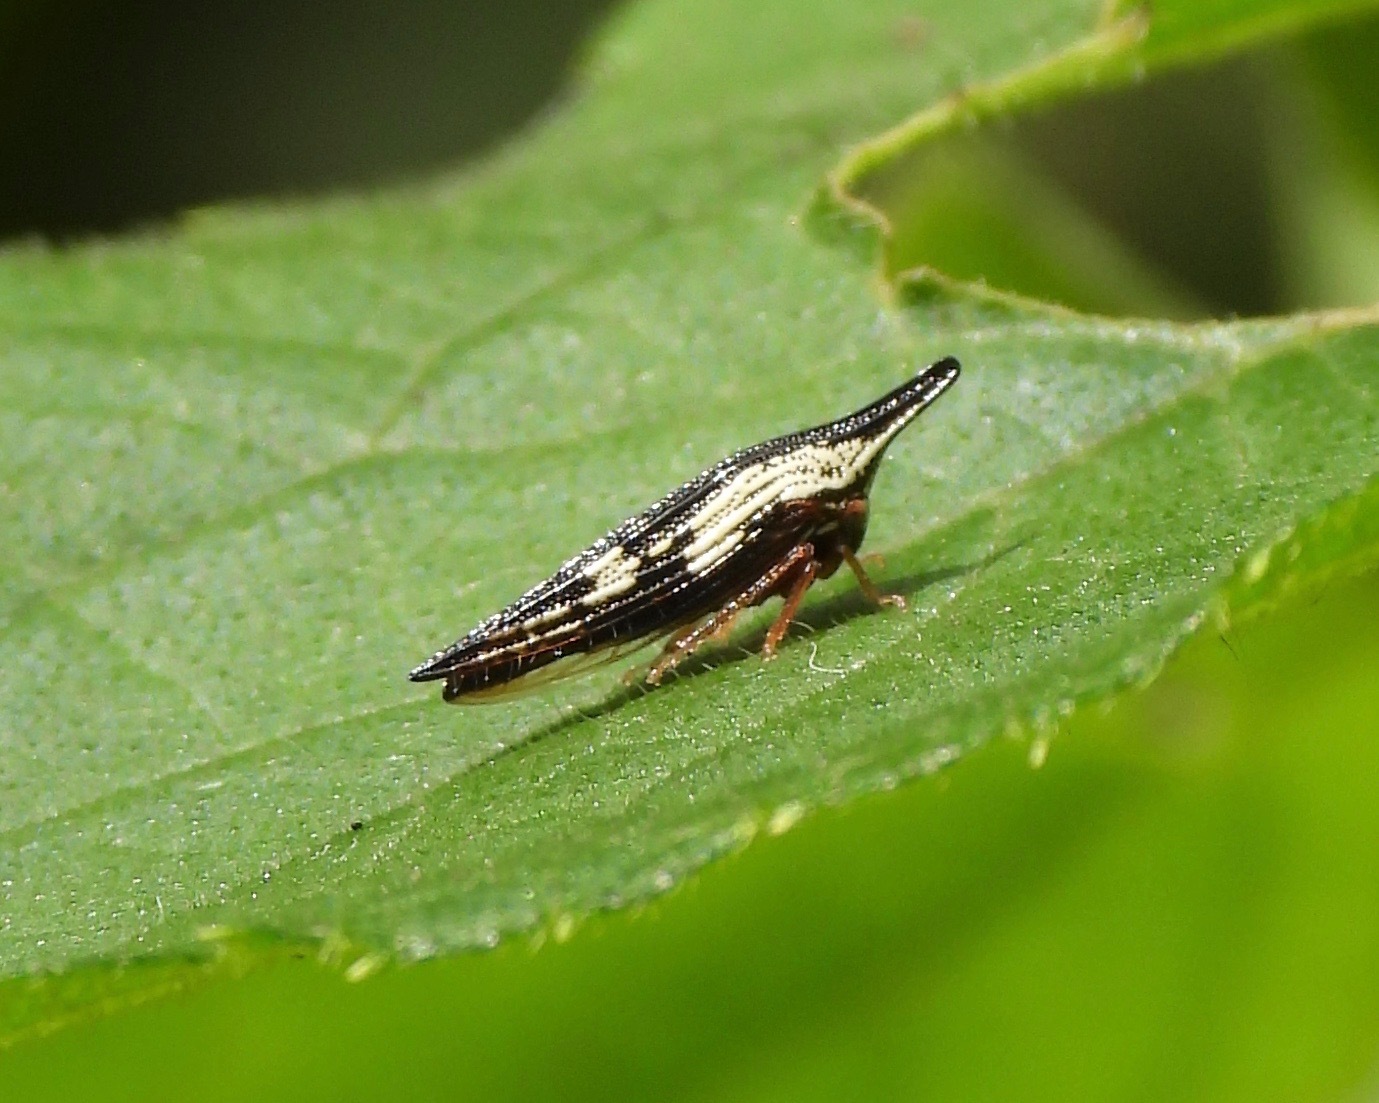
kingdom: Animalia
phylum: Arthropoda
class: Insecta
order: Hemiptera
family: Membracidae
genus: Polyglypta
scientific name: Polyglypta costata
